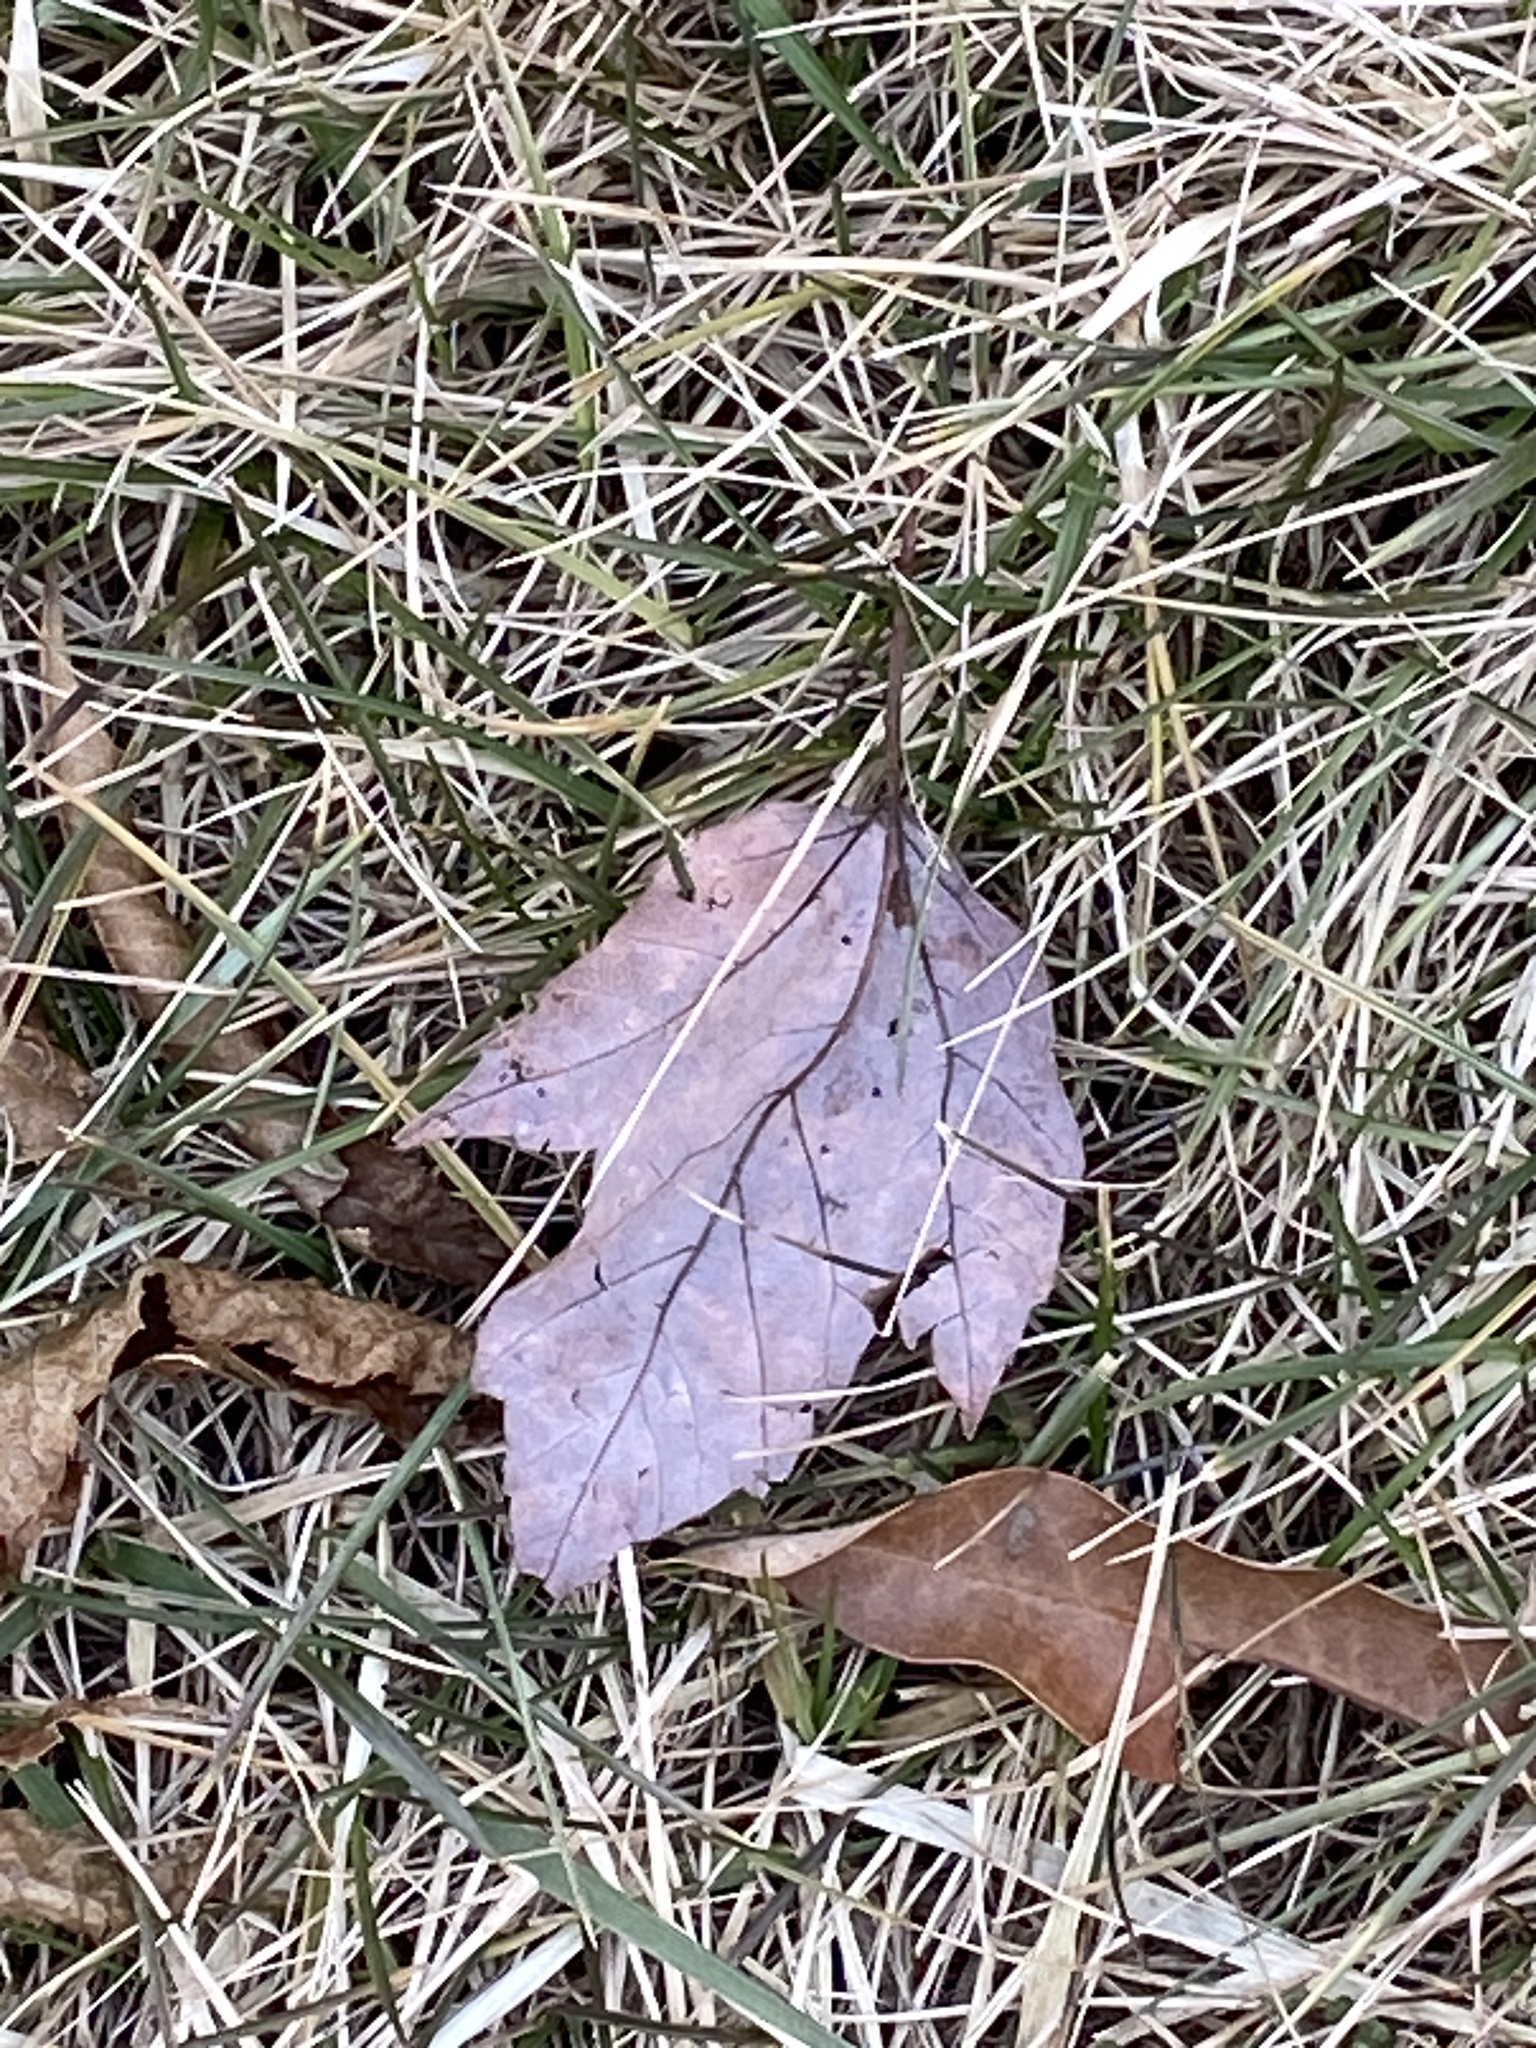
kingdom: Plantae
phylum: Tracheophyta
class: Magnoliopsida
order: Sapindales
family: Sapindaceae
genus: Acer
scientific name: Acer rubrum
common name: Red maple
